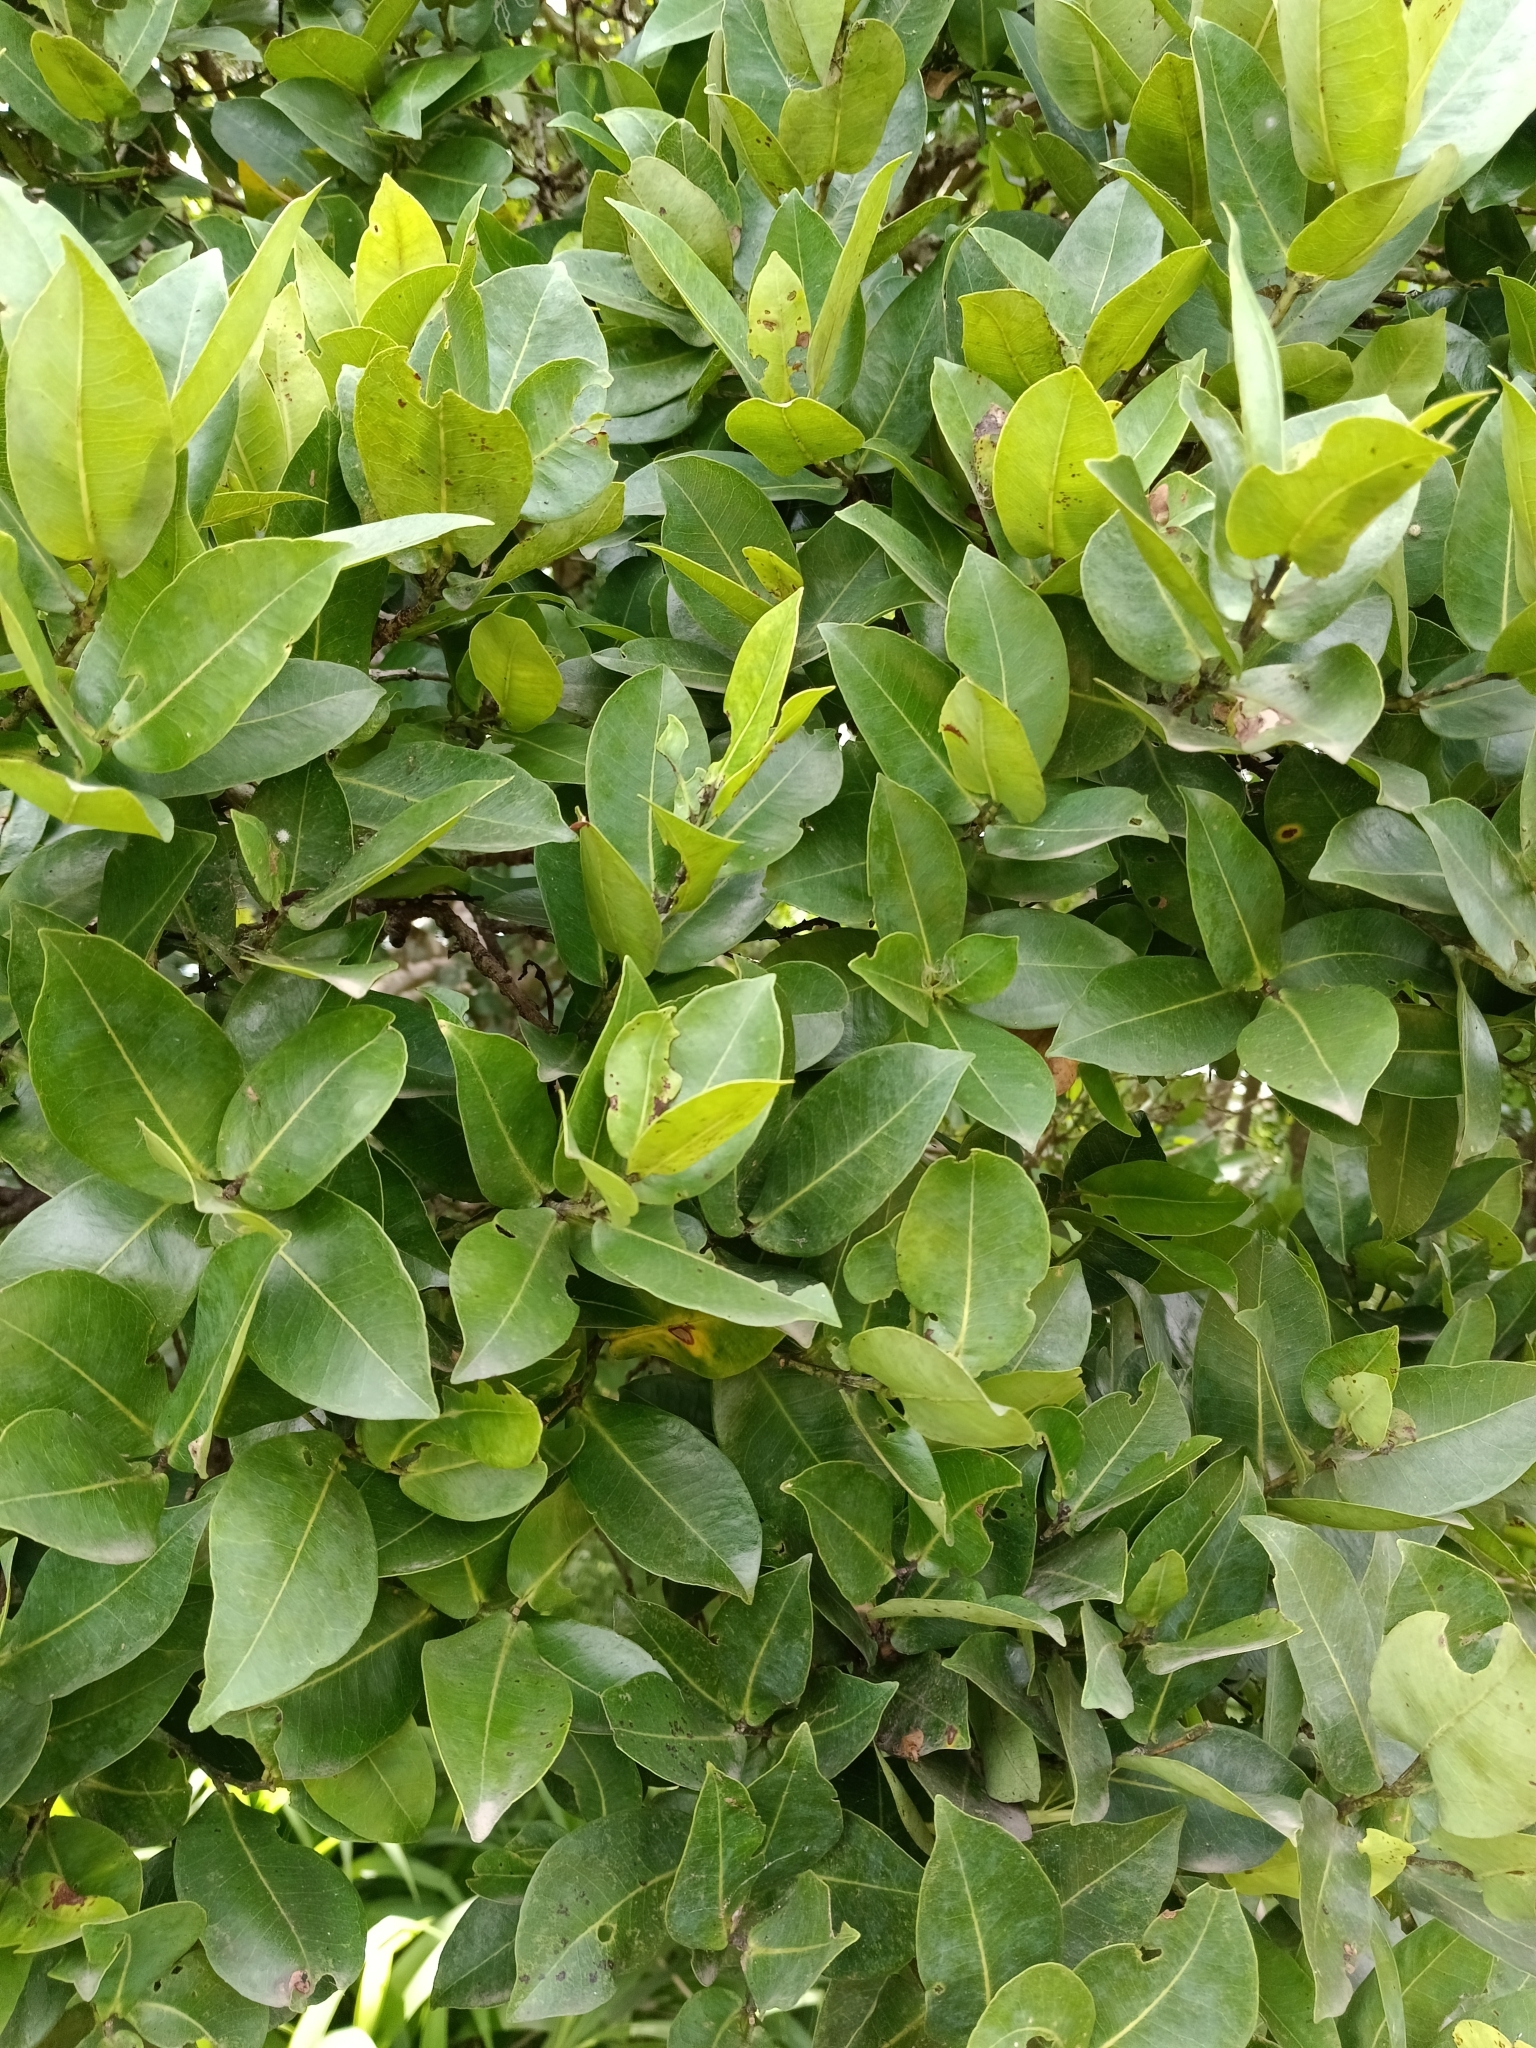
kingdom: Plantae
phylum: Tracheophyta
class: Magnoliopsida
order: Myrtales
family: Myrtaceae
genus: Syzygium
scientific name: Syzygium cordatum
